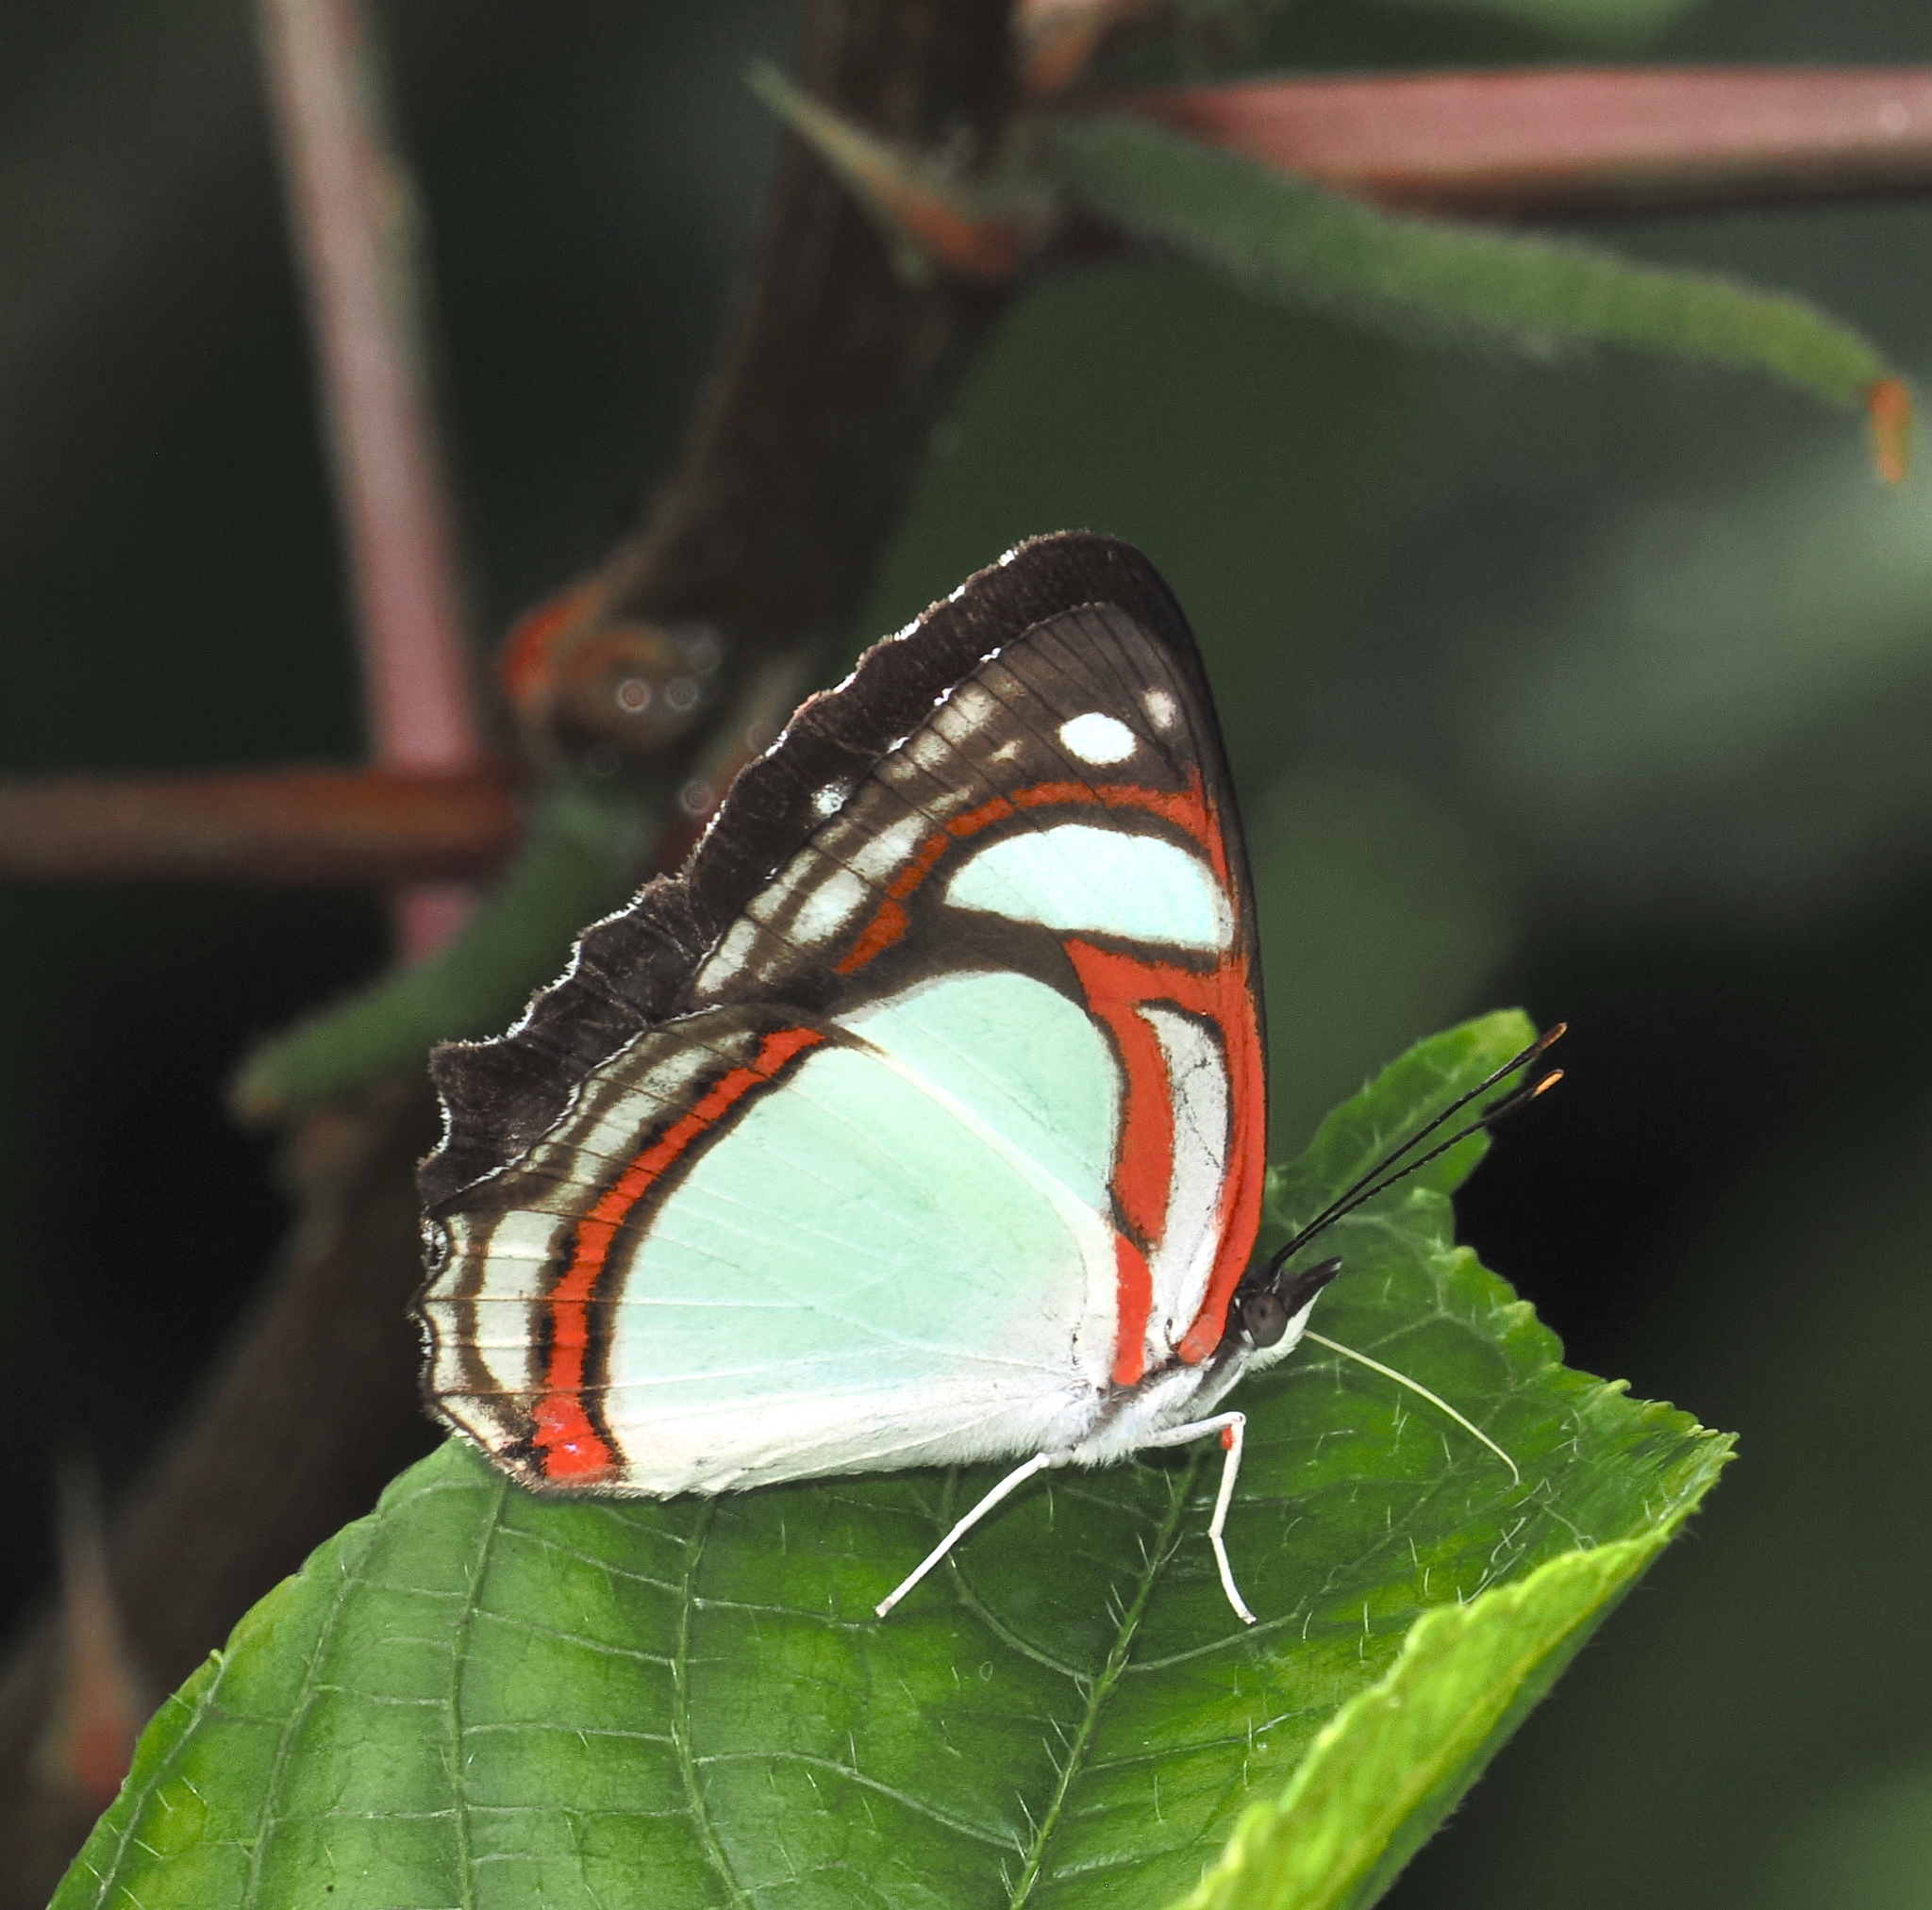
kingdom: Animalia
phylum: Arthropoda
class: Insecta
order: Lepidoptera
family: Nymphalidae
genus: Pyrrhogyra
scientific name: Pyrrhogyra otolais
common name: Double-banded banner
